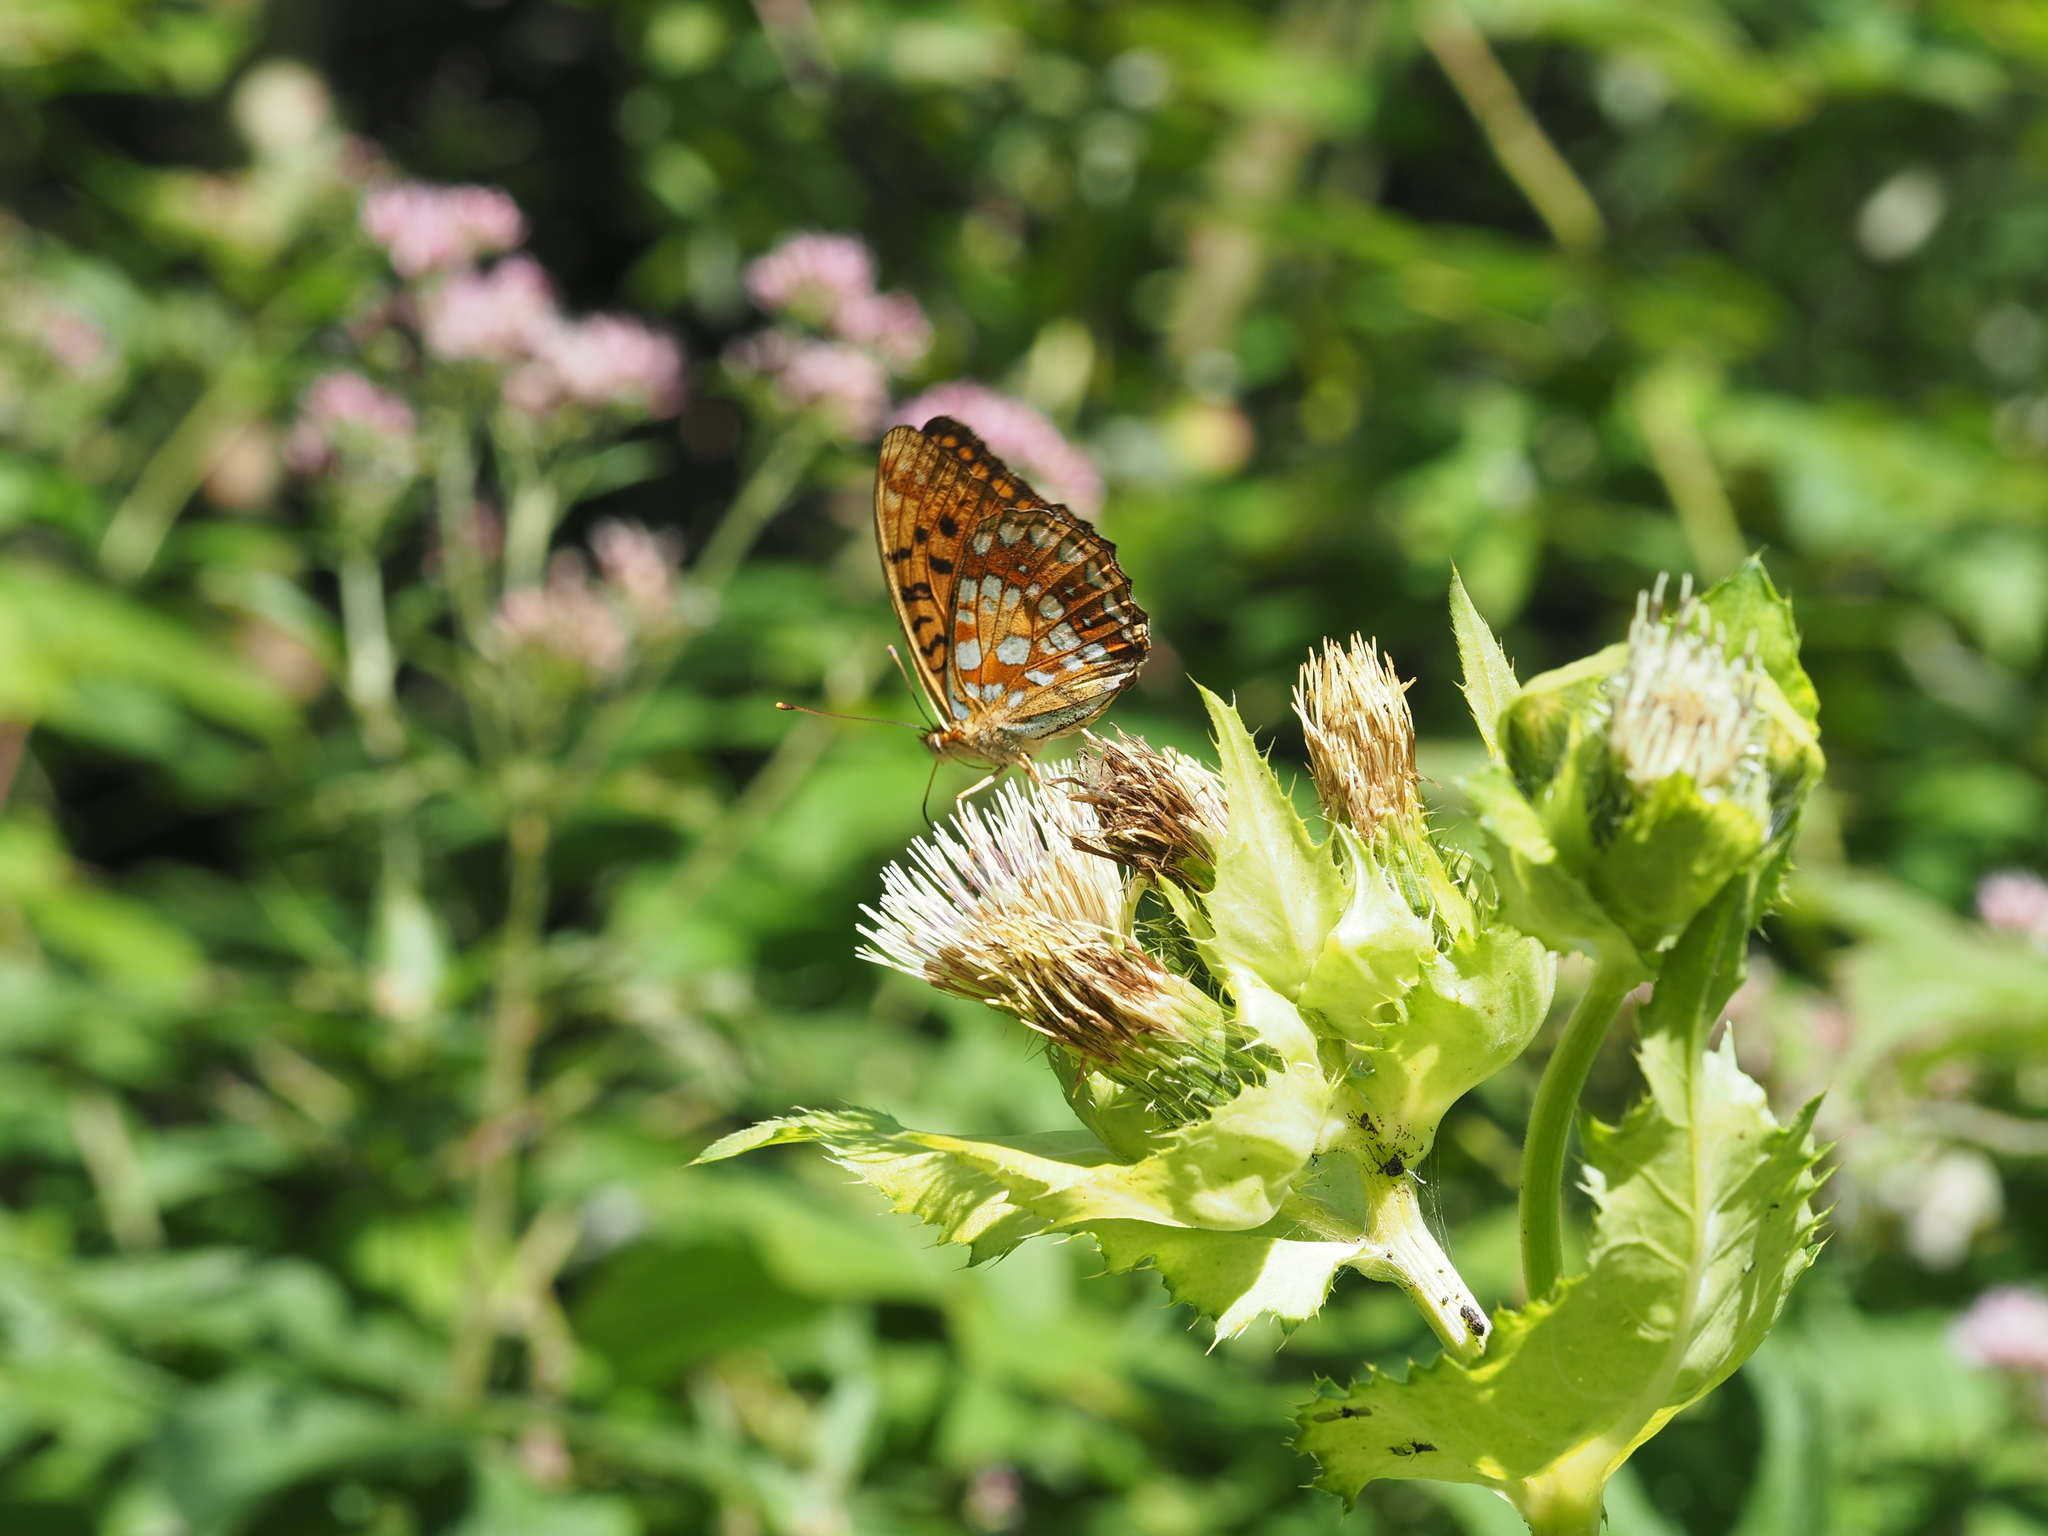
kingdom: Animalia
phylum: Arthropoda
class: Insecta
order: Lepidoptera
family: Nymphalidae
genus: Fabriciana
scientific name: Fabriciana adippe
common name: High brown fritillary
